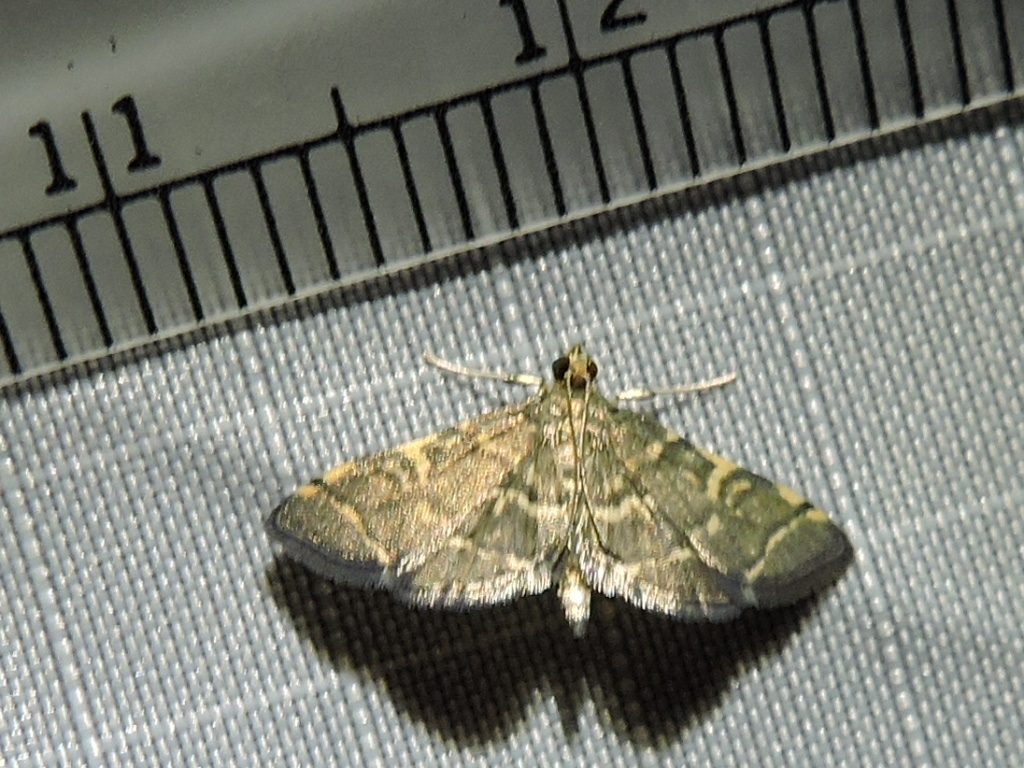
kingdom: Animalia
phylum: Arthropoda
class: Insecta
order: Lepidoptera
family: Crambidae
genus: Anageshna
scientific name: Anageshna primordialis
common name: Yellow-spotted webworm moth
